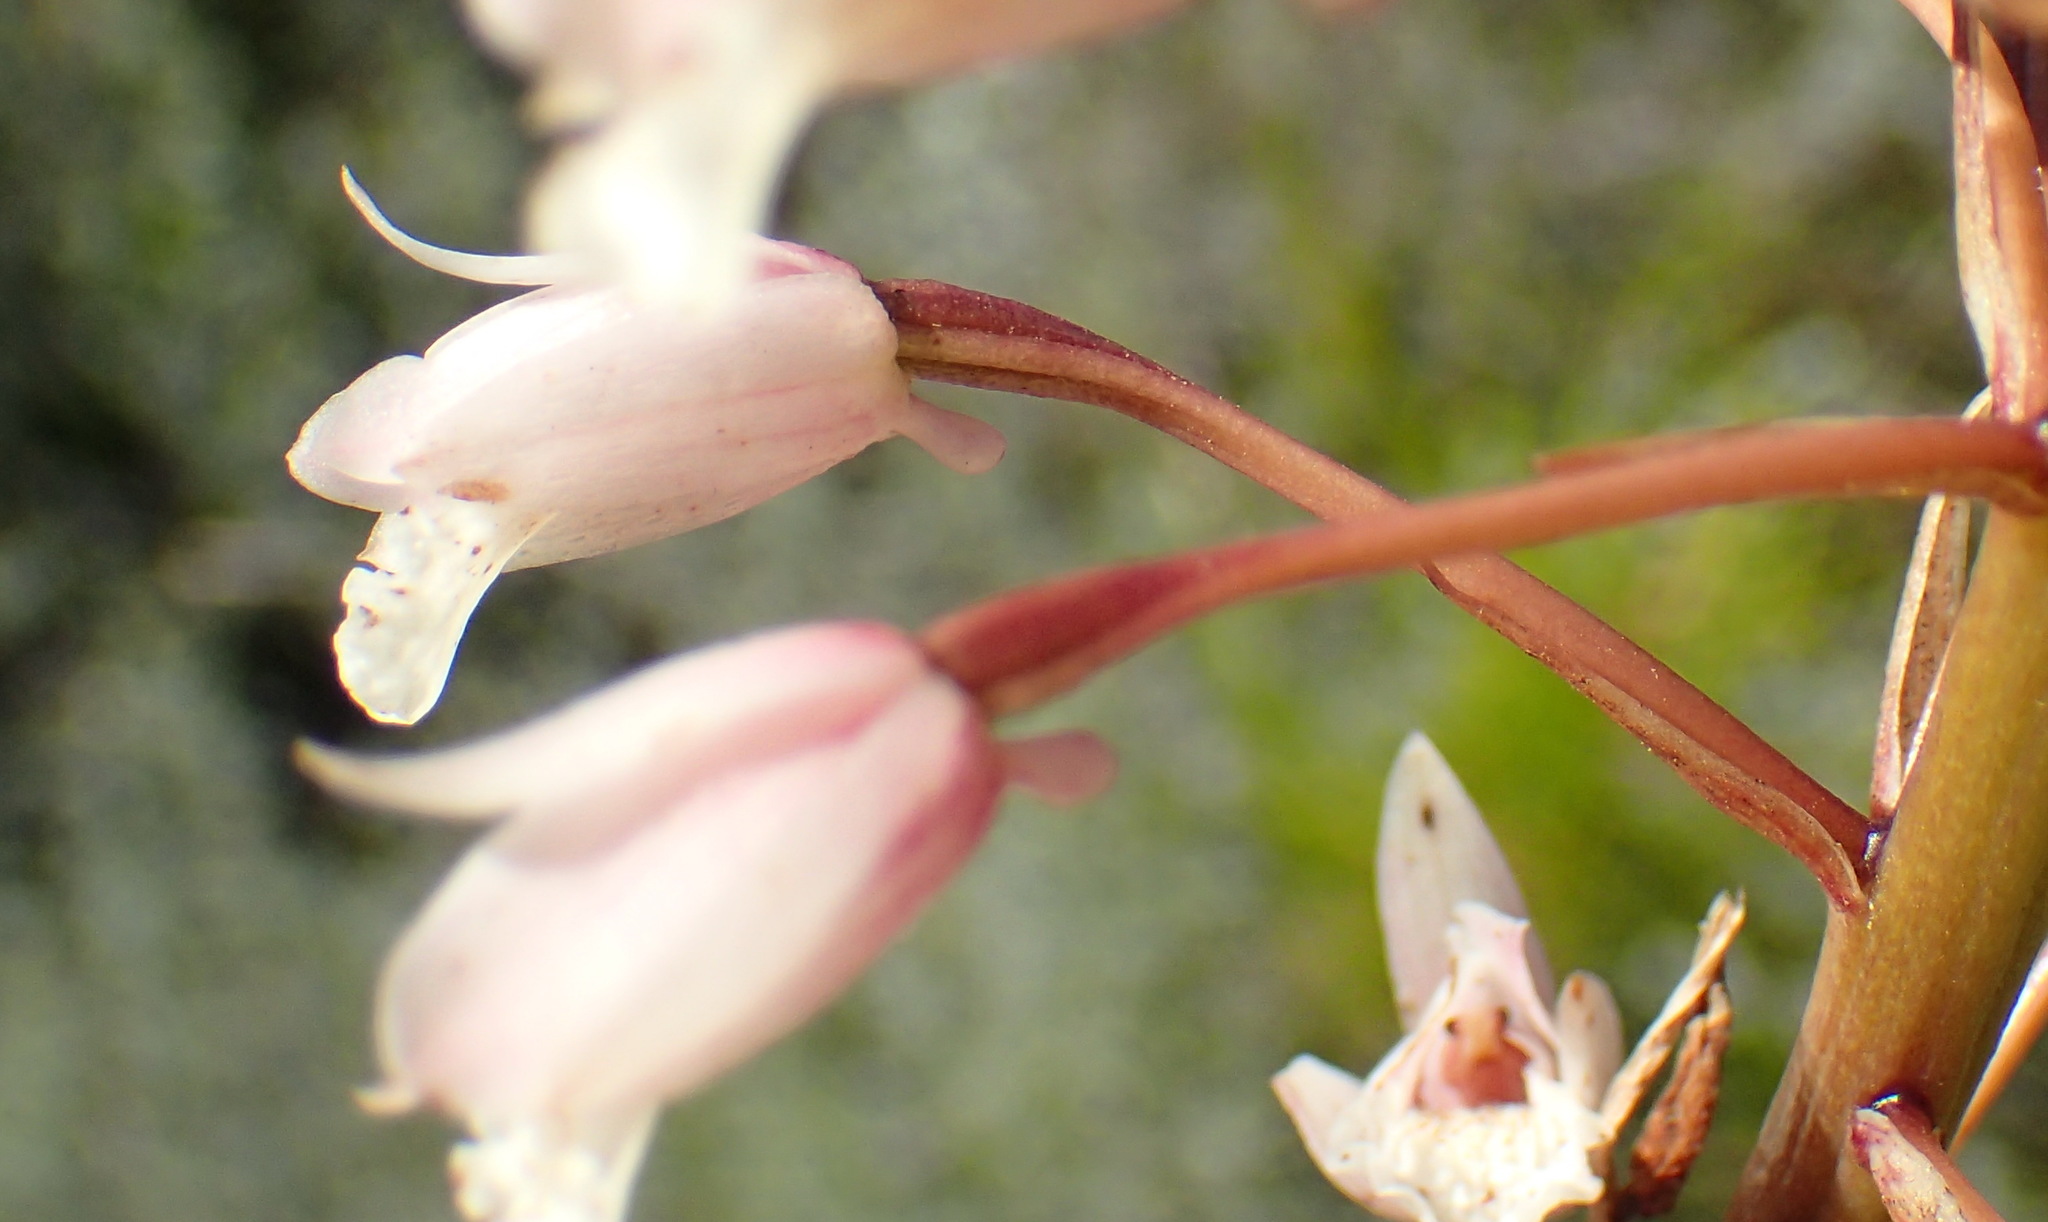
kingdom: Plantae
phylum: Tracheophyta
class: Liliopsida
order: Asparagales
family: Orchidaceae
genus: Eulophia
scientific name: Eulophia barbata
